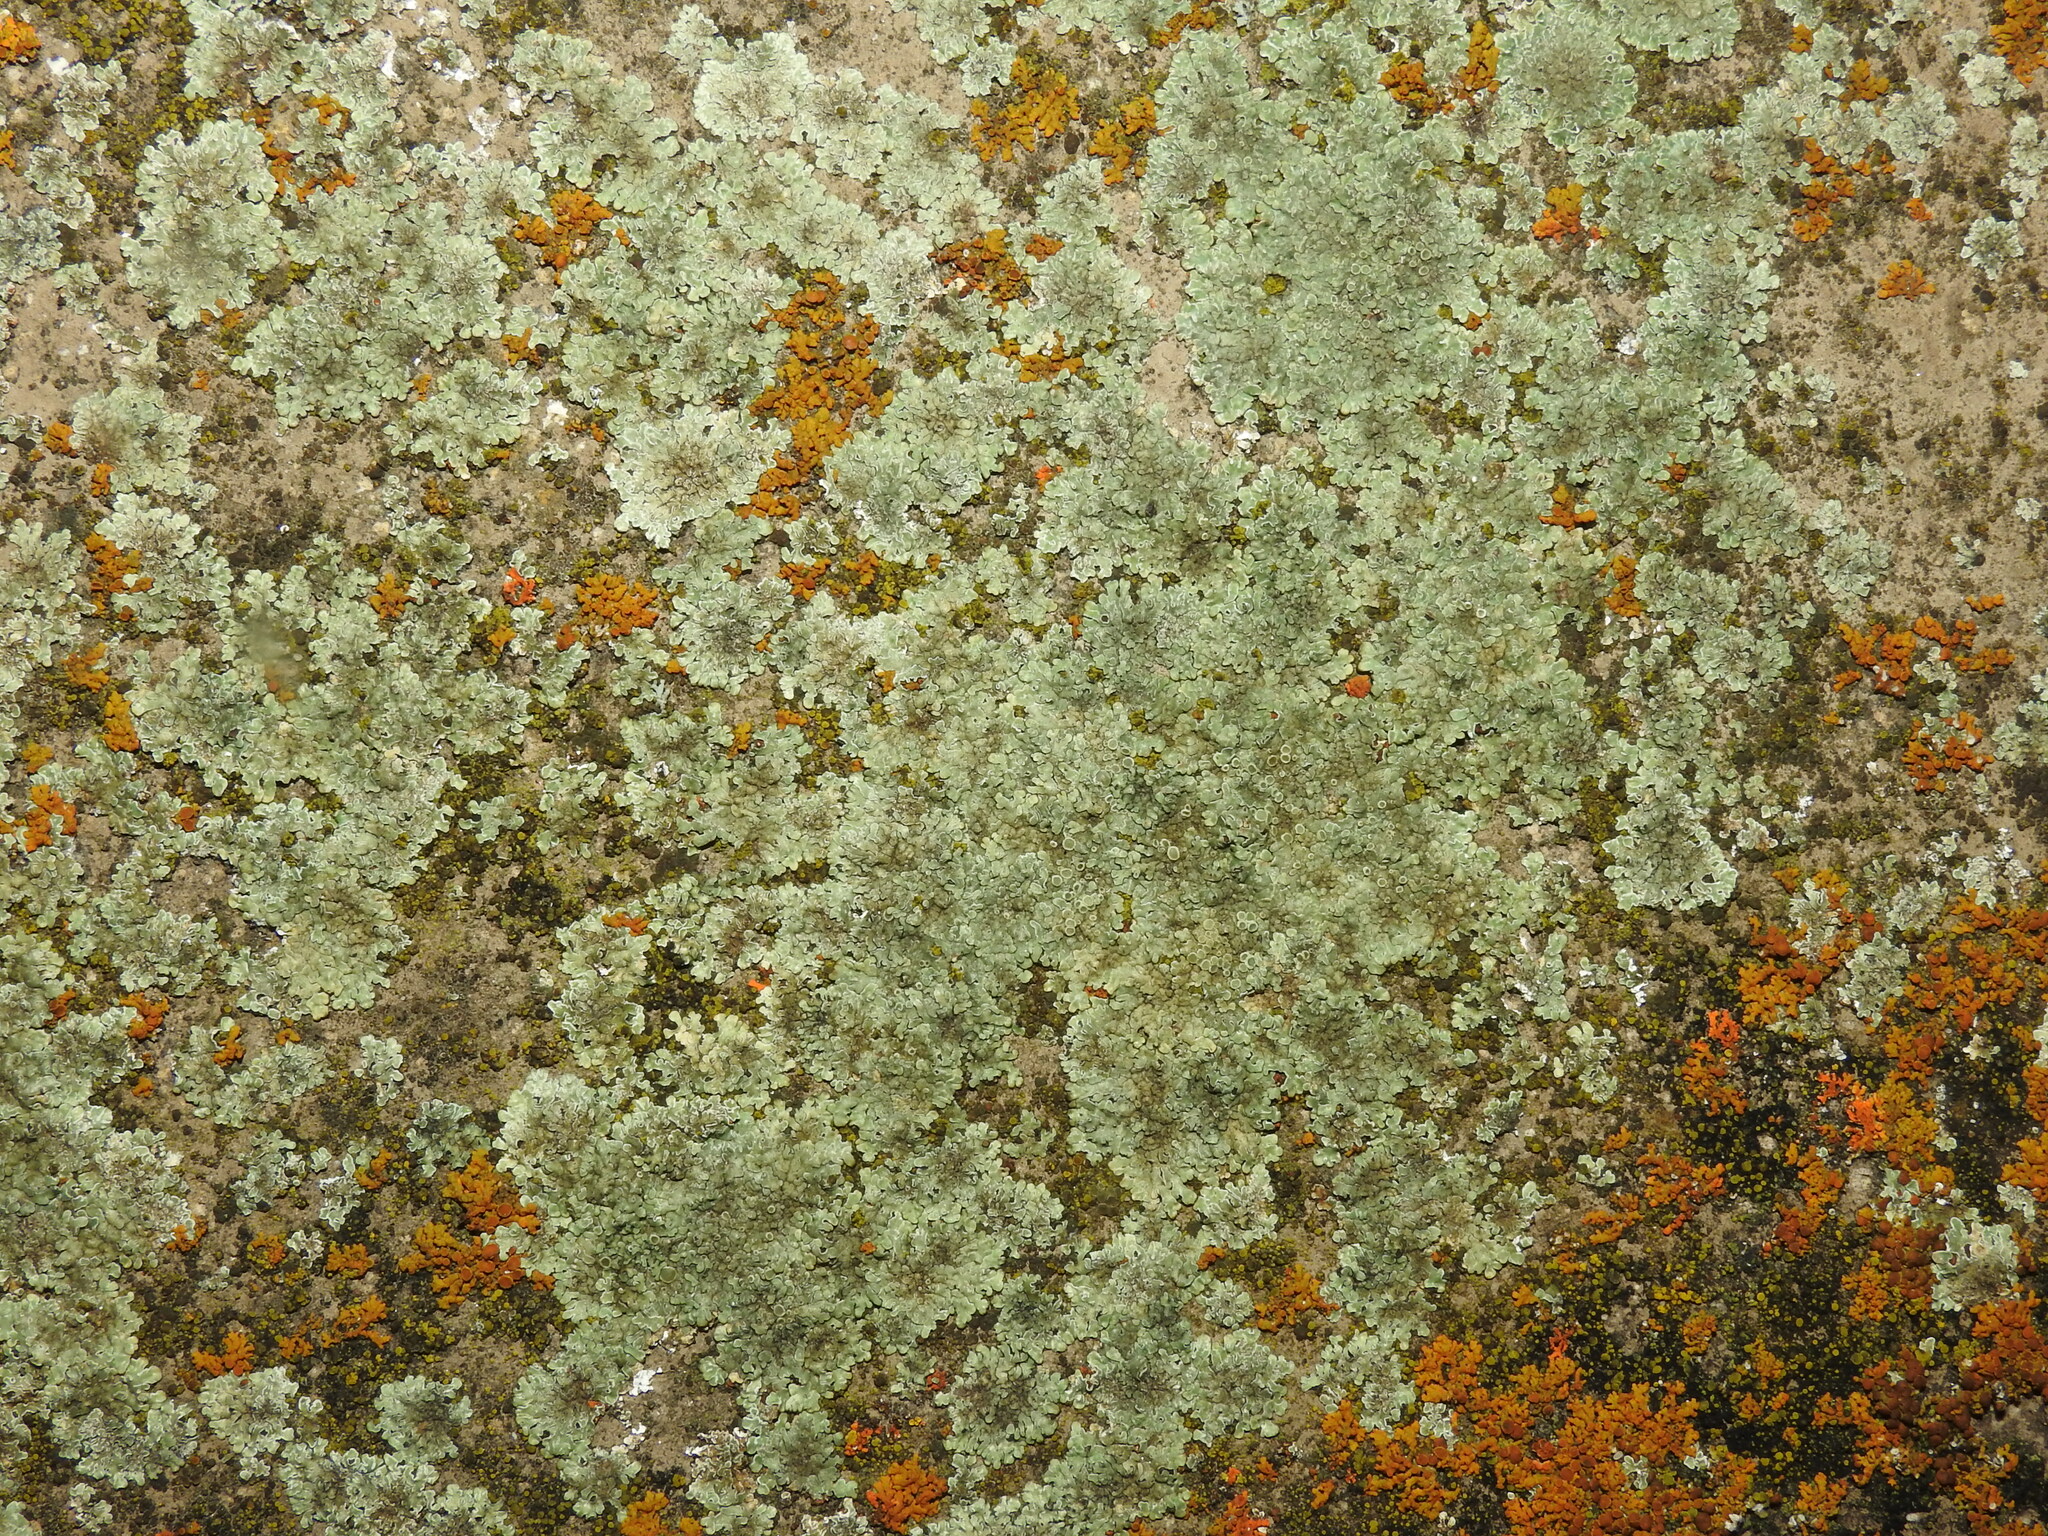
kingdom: Fungi
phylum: Ascomycota
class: Lecanoromycetes
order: Lecanorales
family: Lecanoraceae
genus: Protoparmeliopsis
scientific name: Protoparmeliopsis muralis
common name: Stonewall rim lichen
